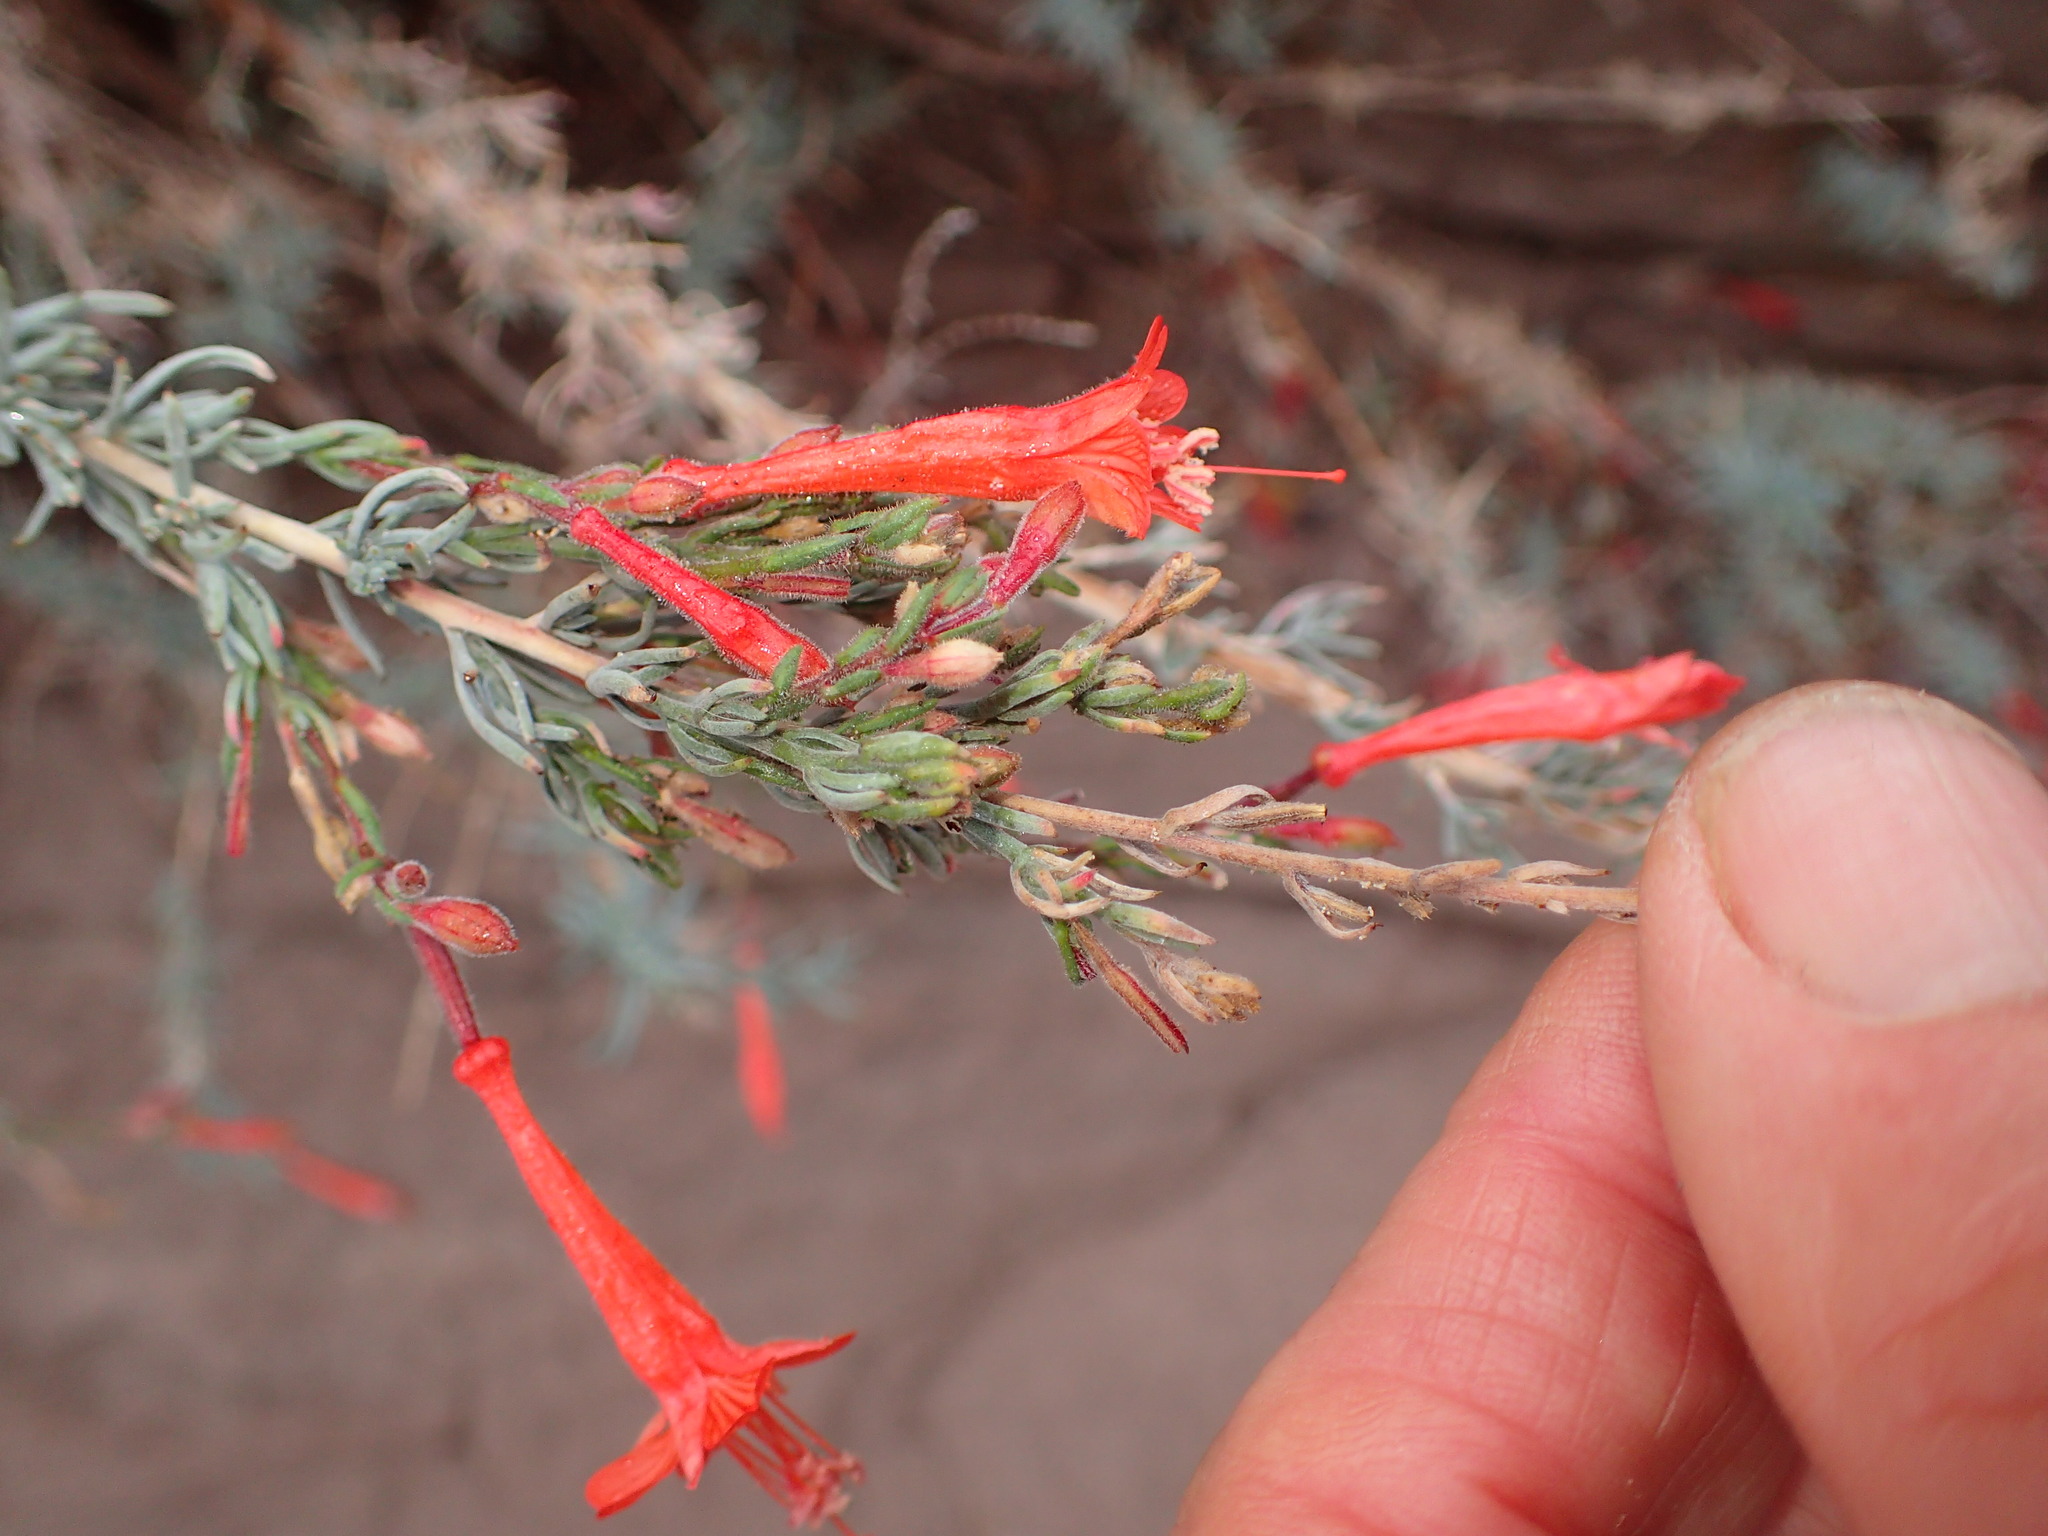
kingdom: Plantae
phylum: Tracheophyta
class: Magnoliopsida
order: Myrtales
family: Onagraceae
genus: Epilobium
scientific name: Epilobium canum
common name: California-fuchsia
